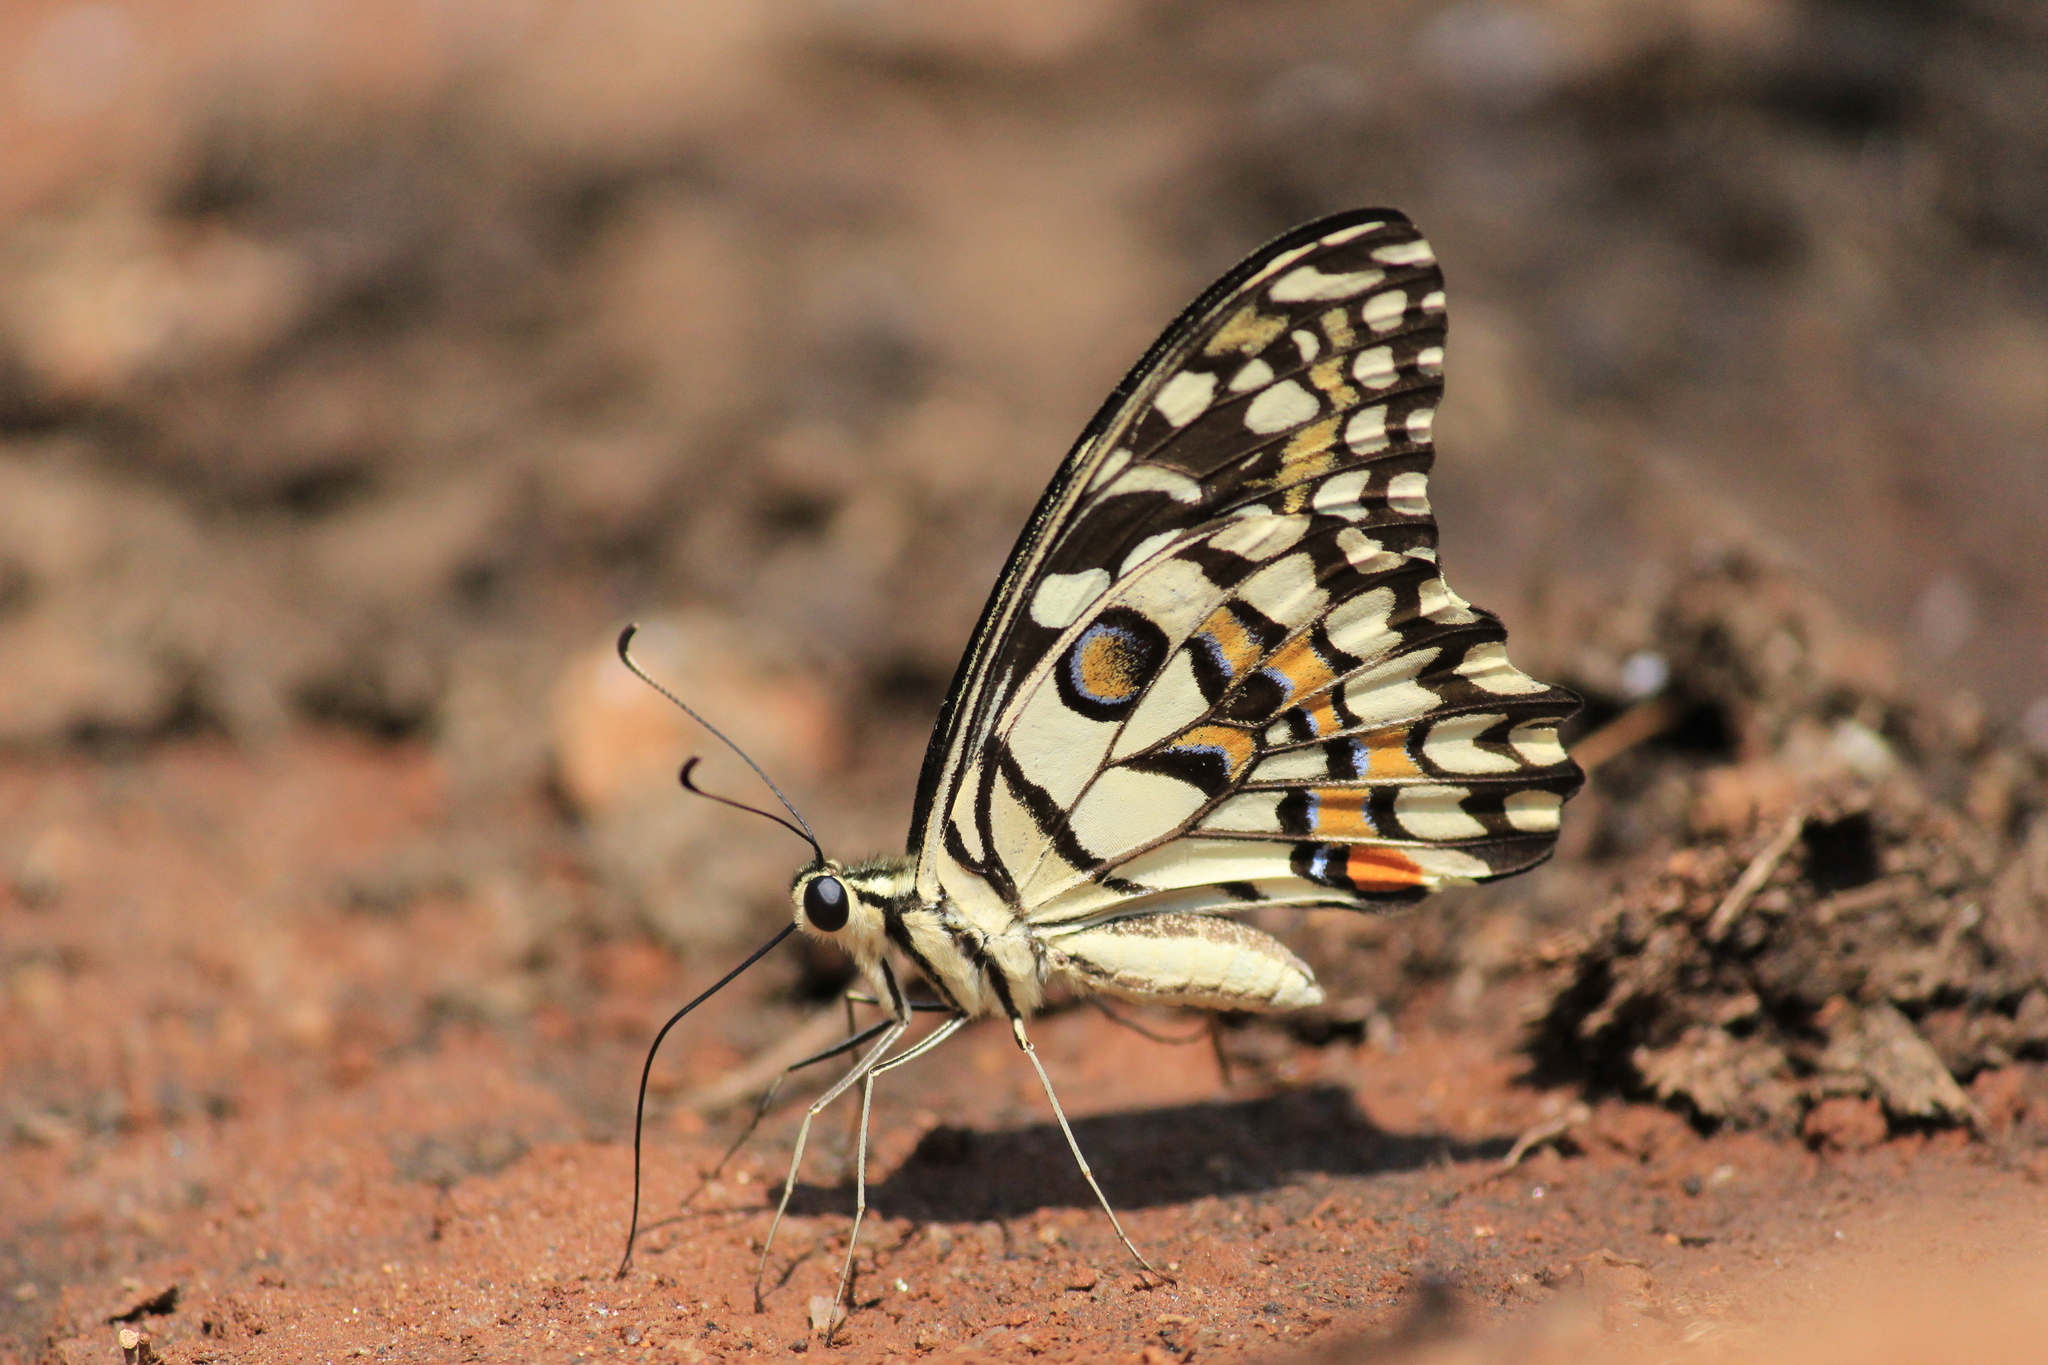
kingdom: Animalia
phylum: Arthropoda
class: Insecta
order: Lepidoptera
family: Papilionidae
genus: Papilio
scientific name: Papilio demoleus
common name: Lime butterfly
